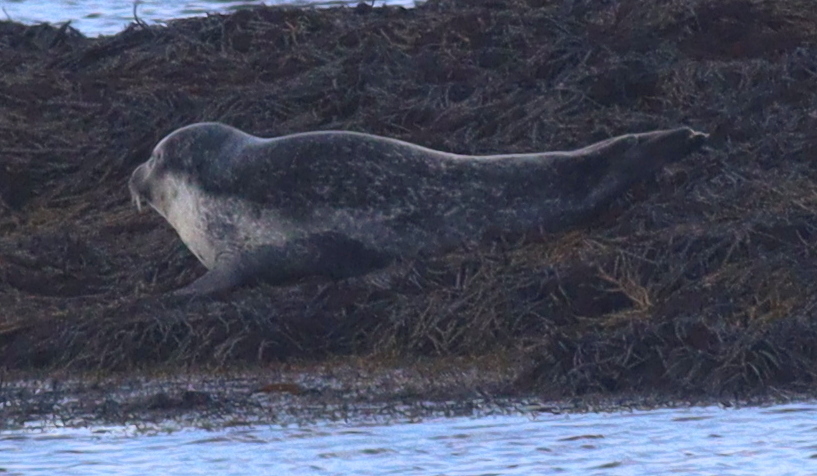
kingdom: Animalia
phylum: Chordata
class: Mammalia
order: Carnivora
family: Phocidae
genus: Phoca
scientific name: Phoca vitulina
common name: Harbor seal
